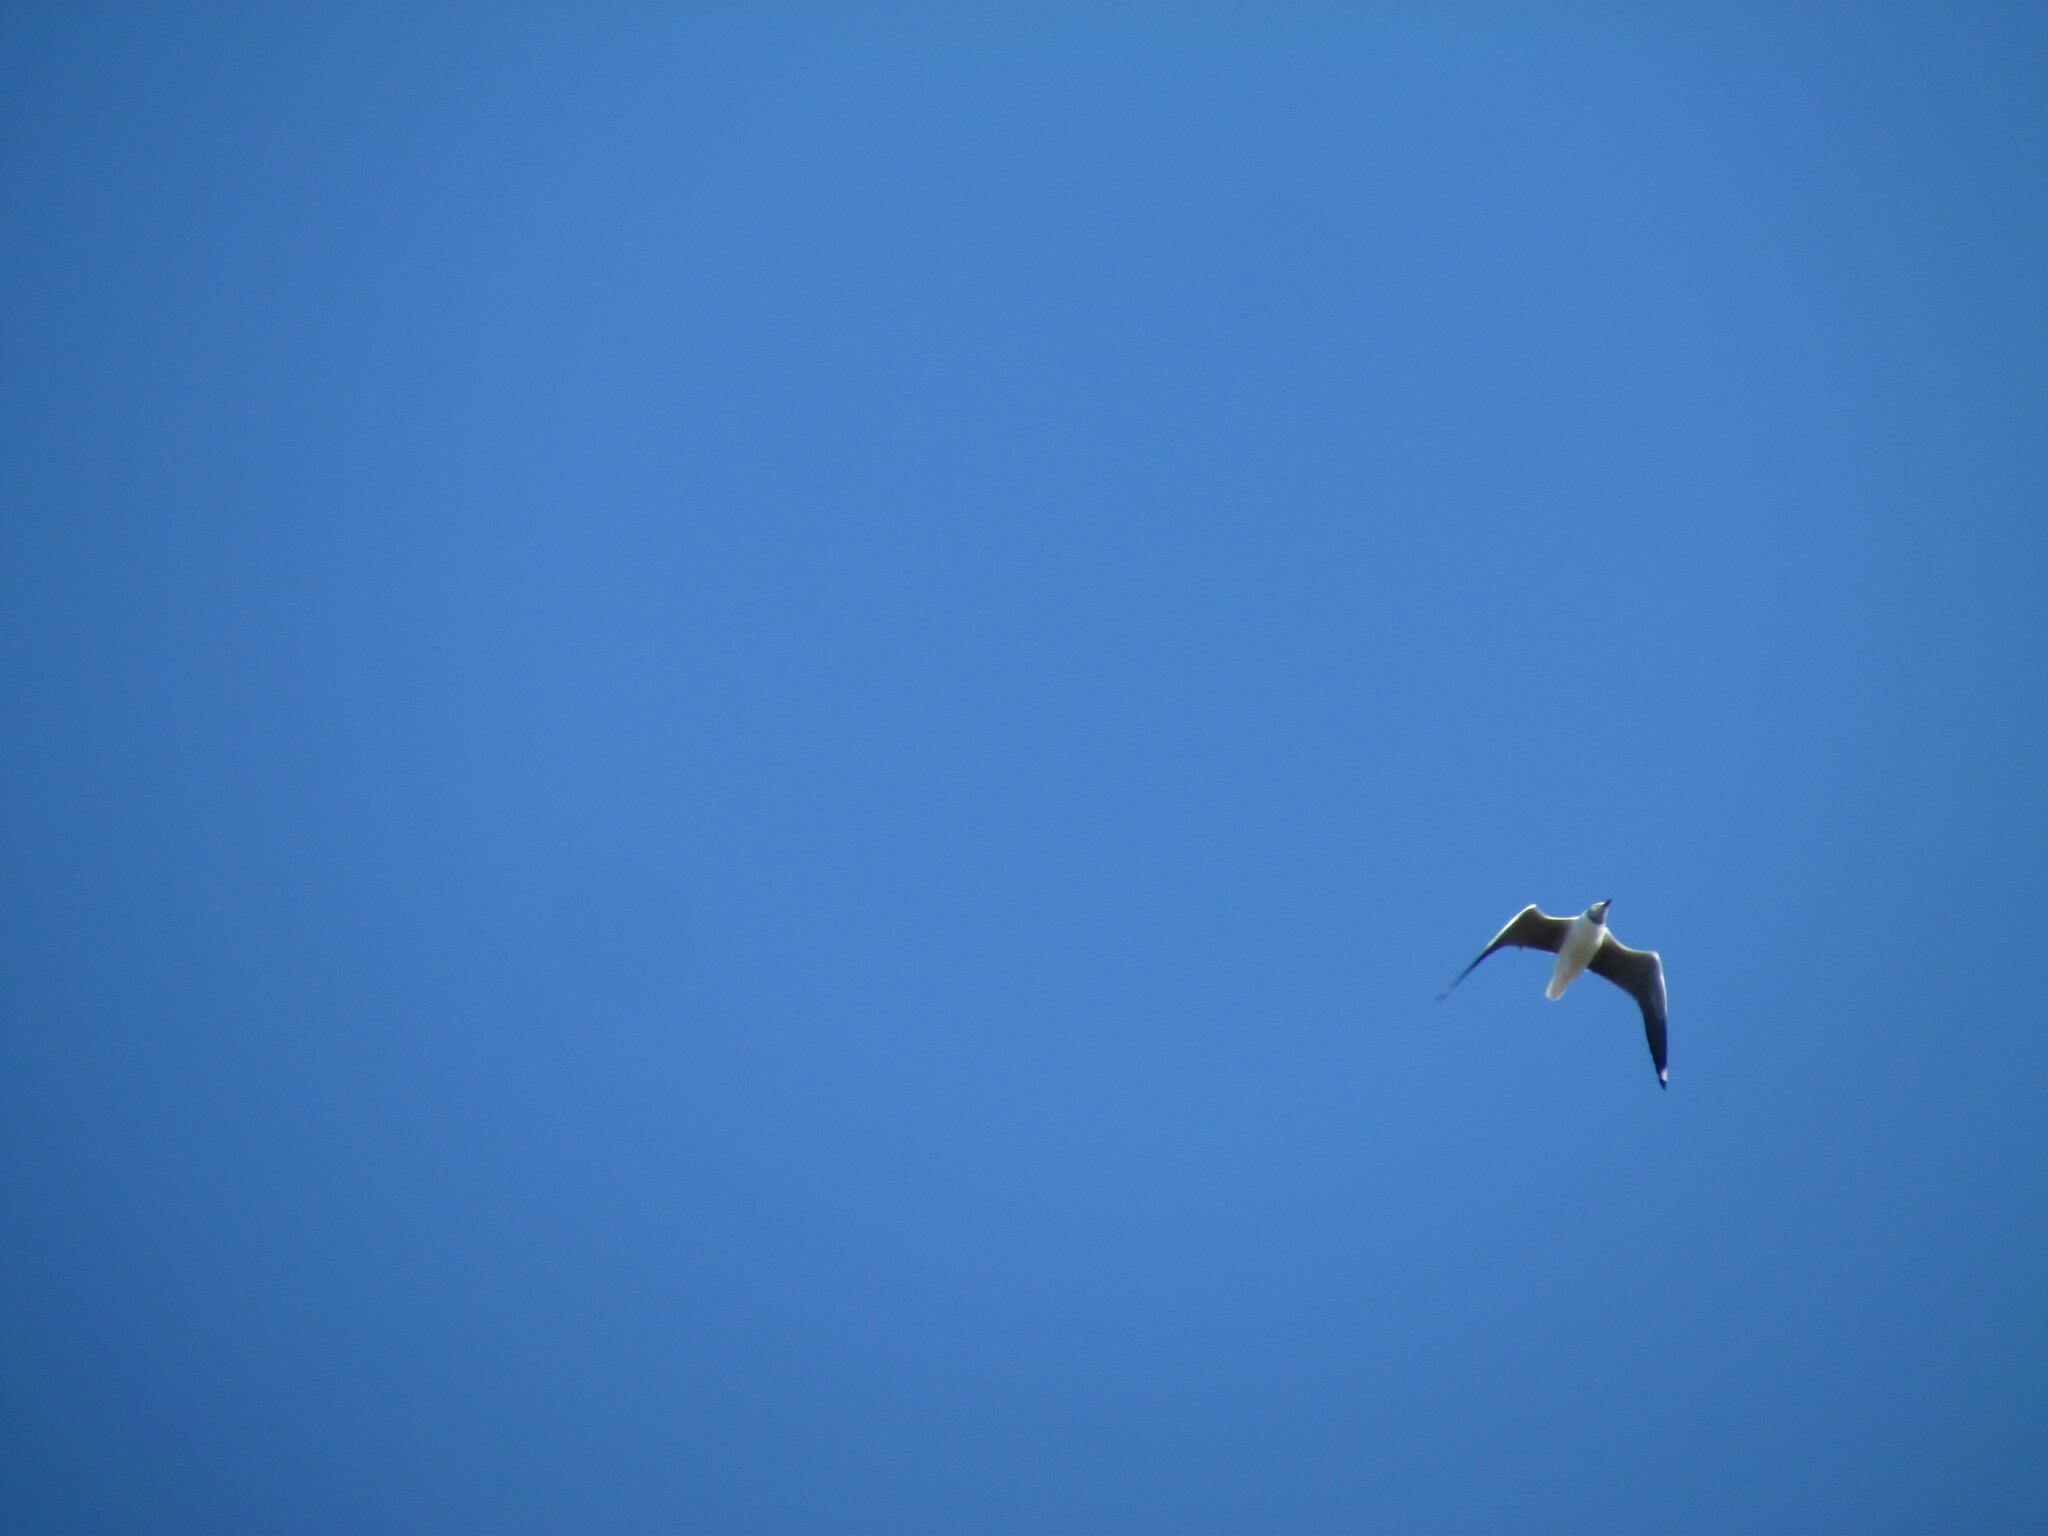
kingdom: Animalia
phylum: Chordata
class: Aves
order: Charadriiformes
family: Laridae
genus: Chroicocephalus
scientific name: Chroicocephalus cirrocephalus
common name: Grey-headed gull
